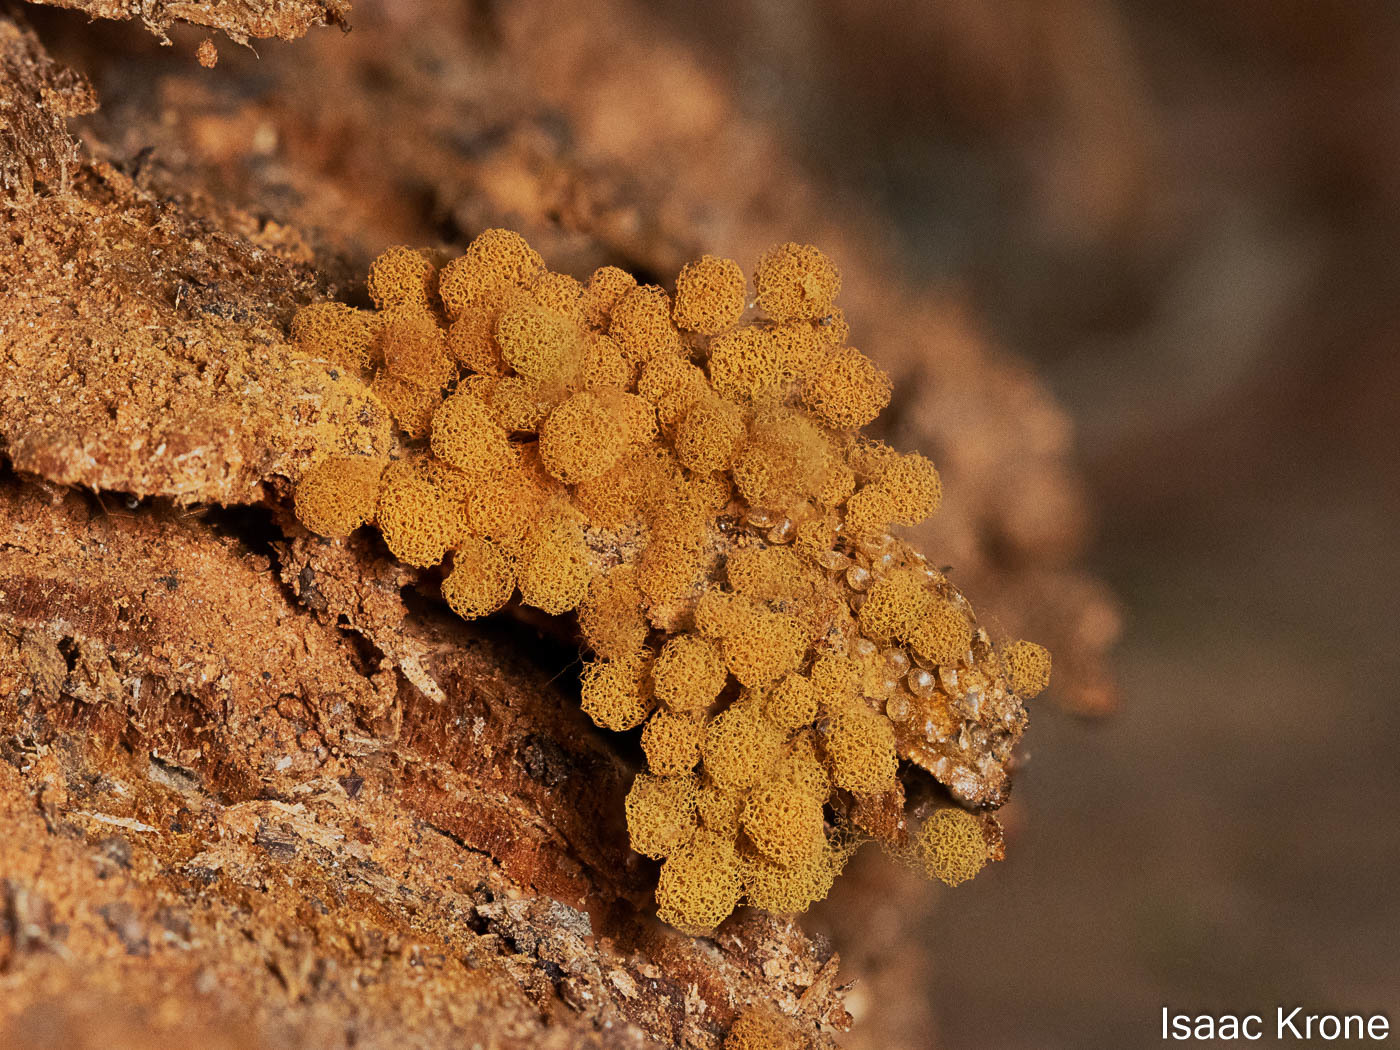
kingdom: Protozoa
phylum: Mycetozoa
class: Myxomycetes
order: Trichiales
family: Arcyriaceae
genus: Arcyria
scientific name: Arcyria ferruginea
